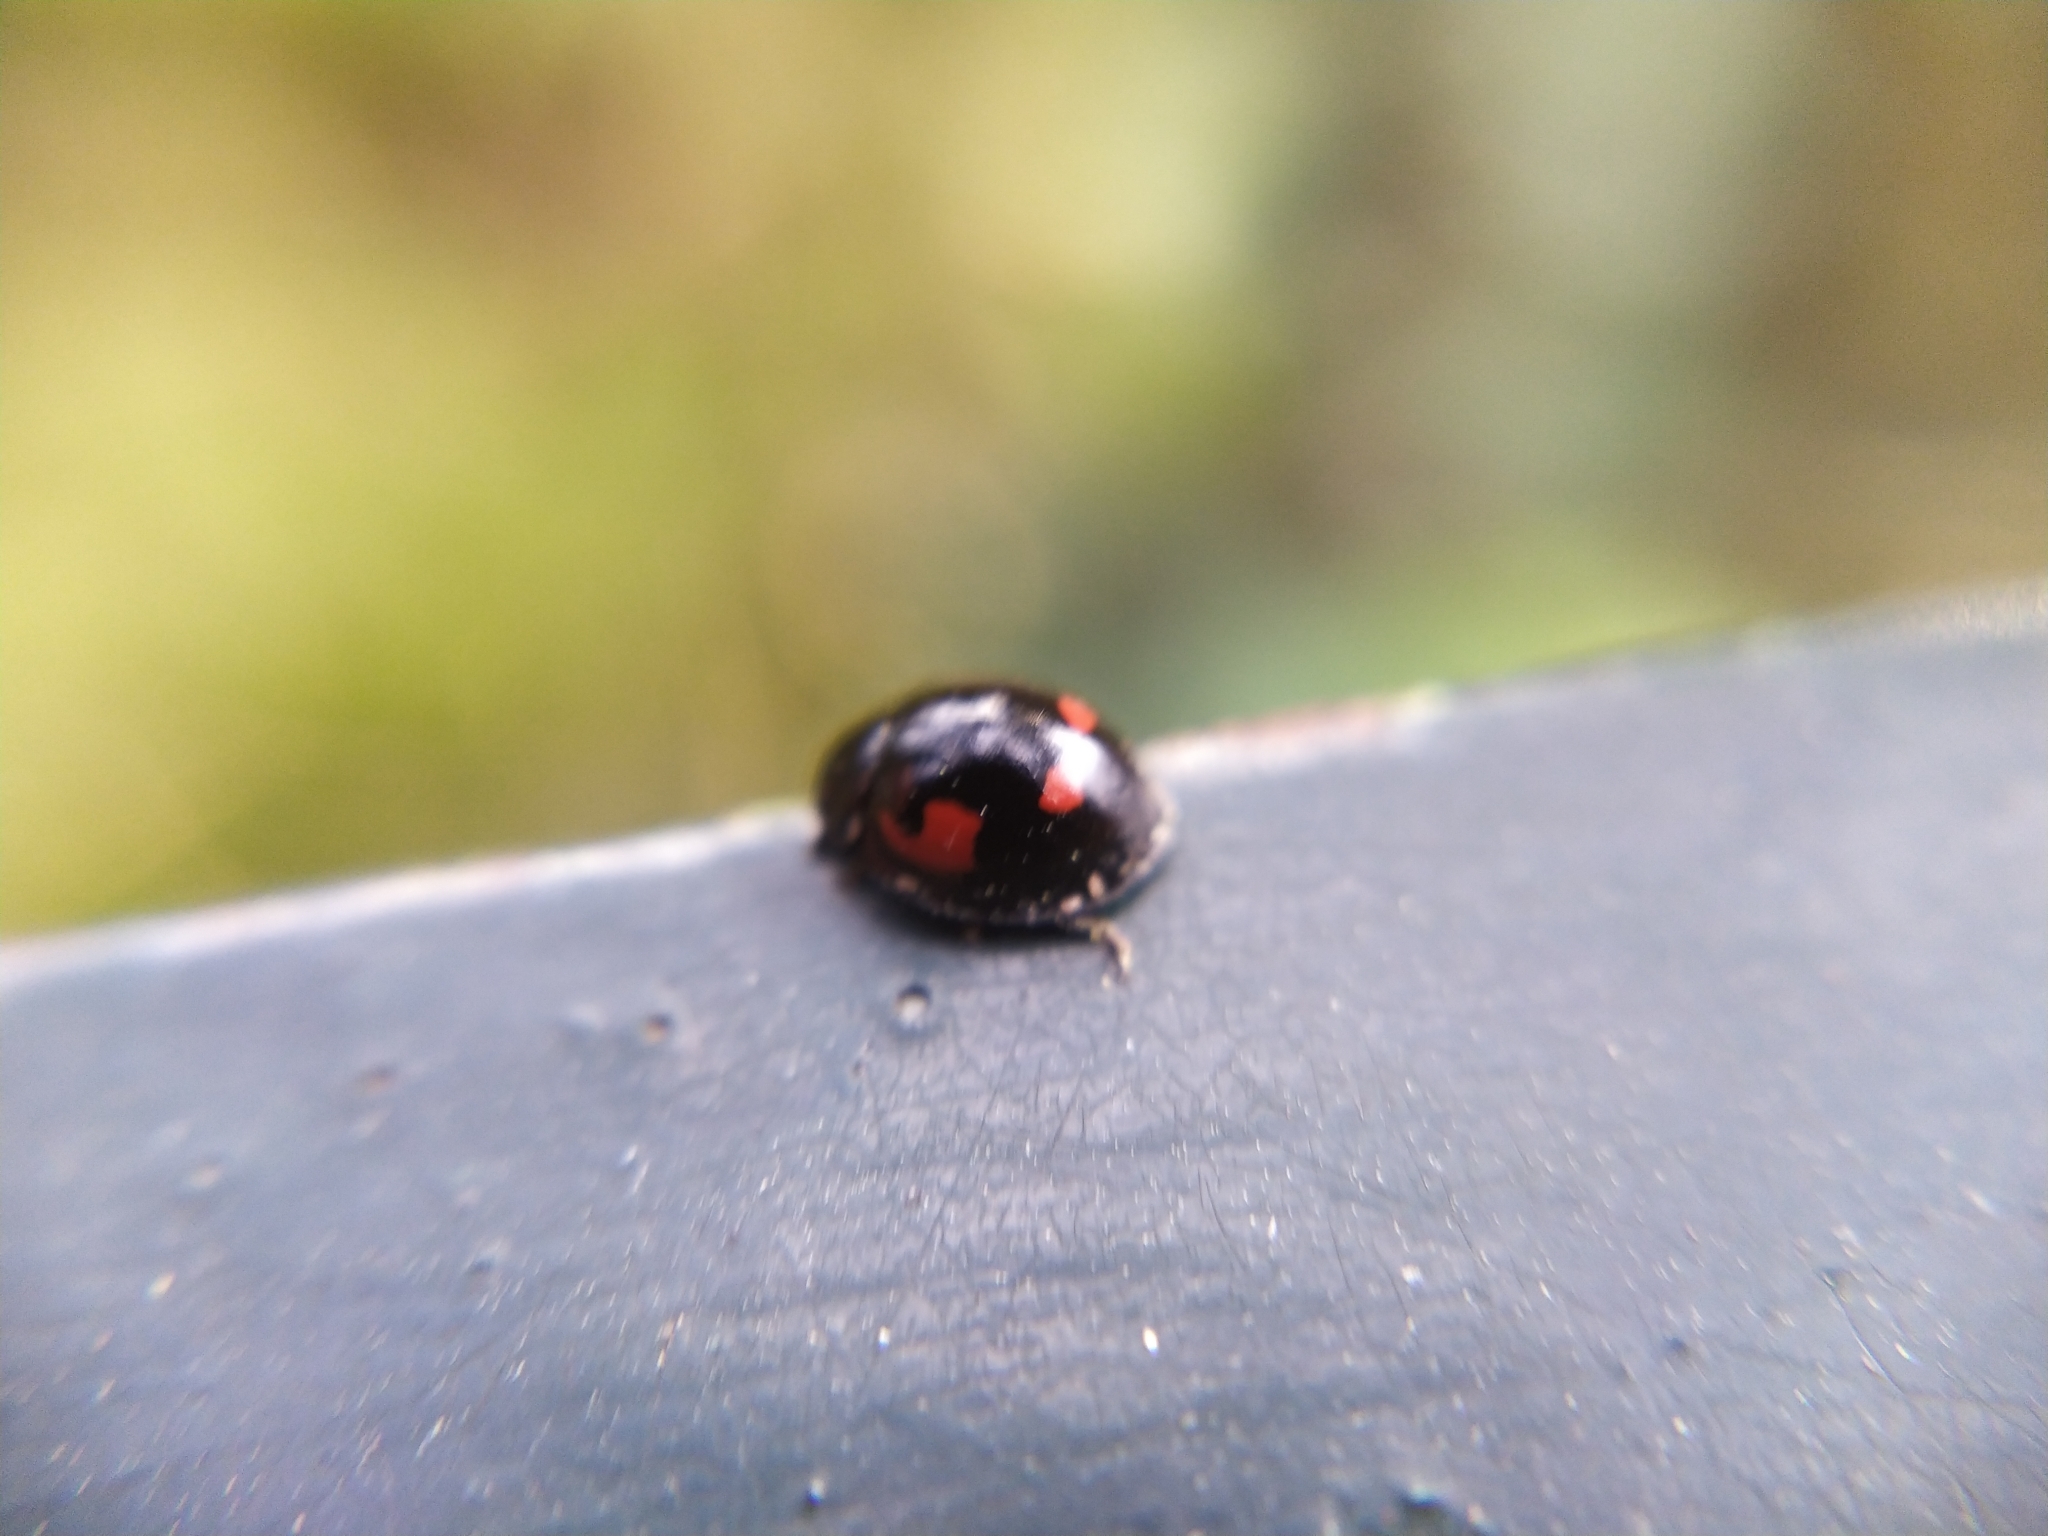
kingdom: Animalia
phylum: Arthropoda
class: Insecta
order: Coleoptera
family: Coccinellidae
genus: Brumus
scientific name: Brumus quadripustulatus
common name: Ladybird beetle
